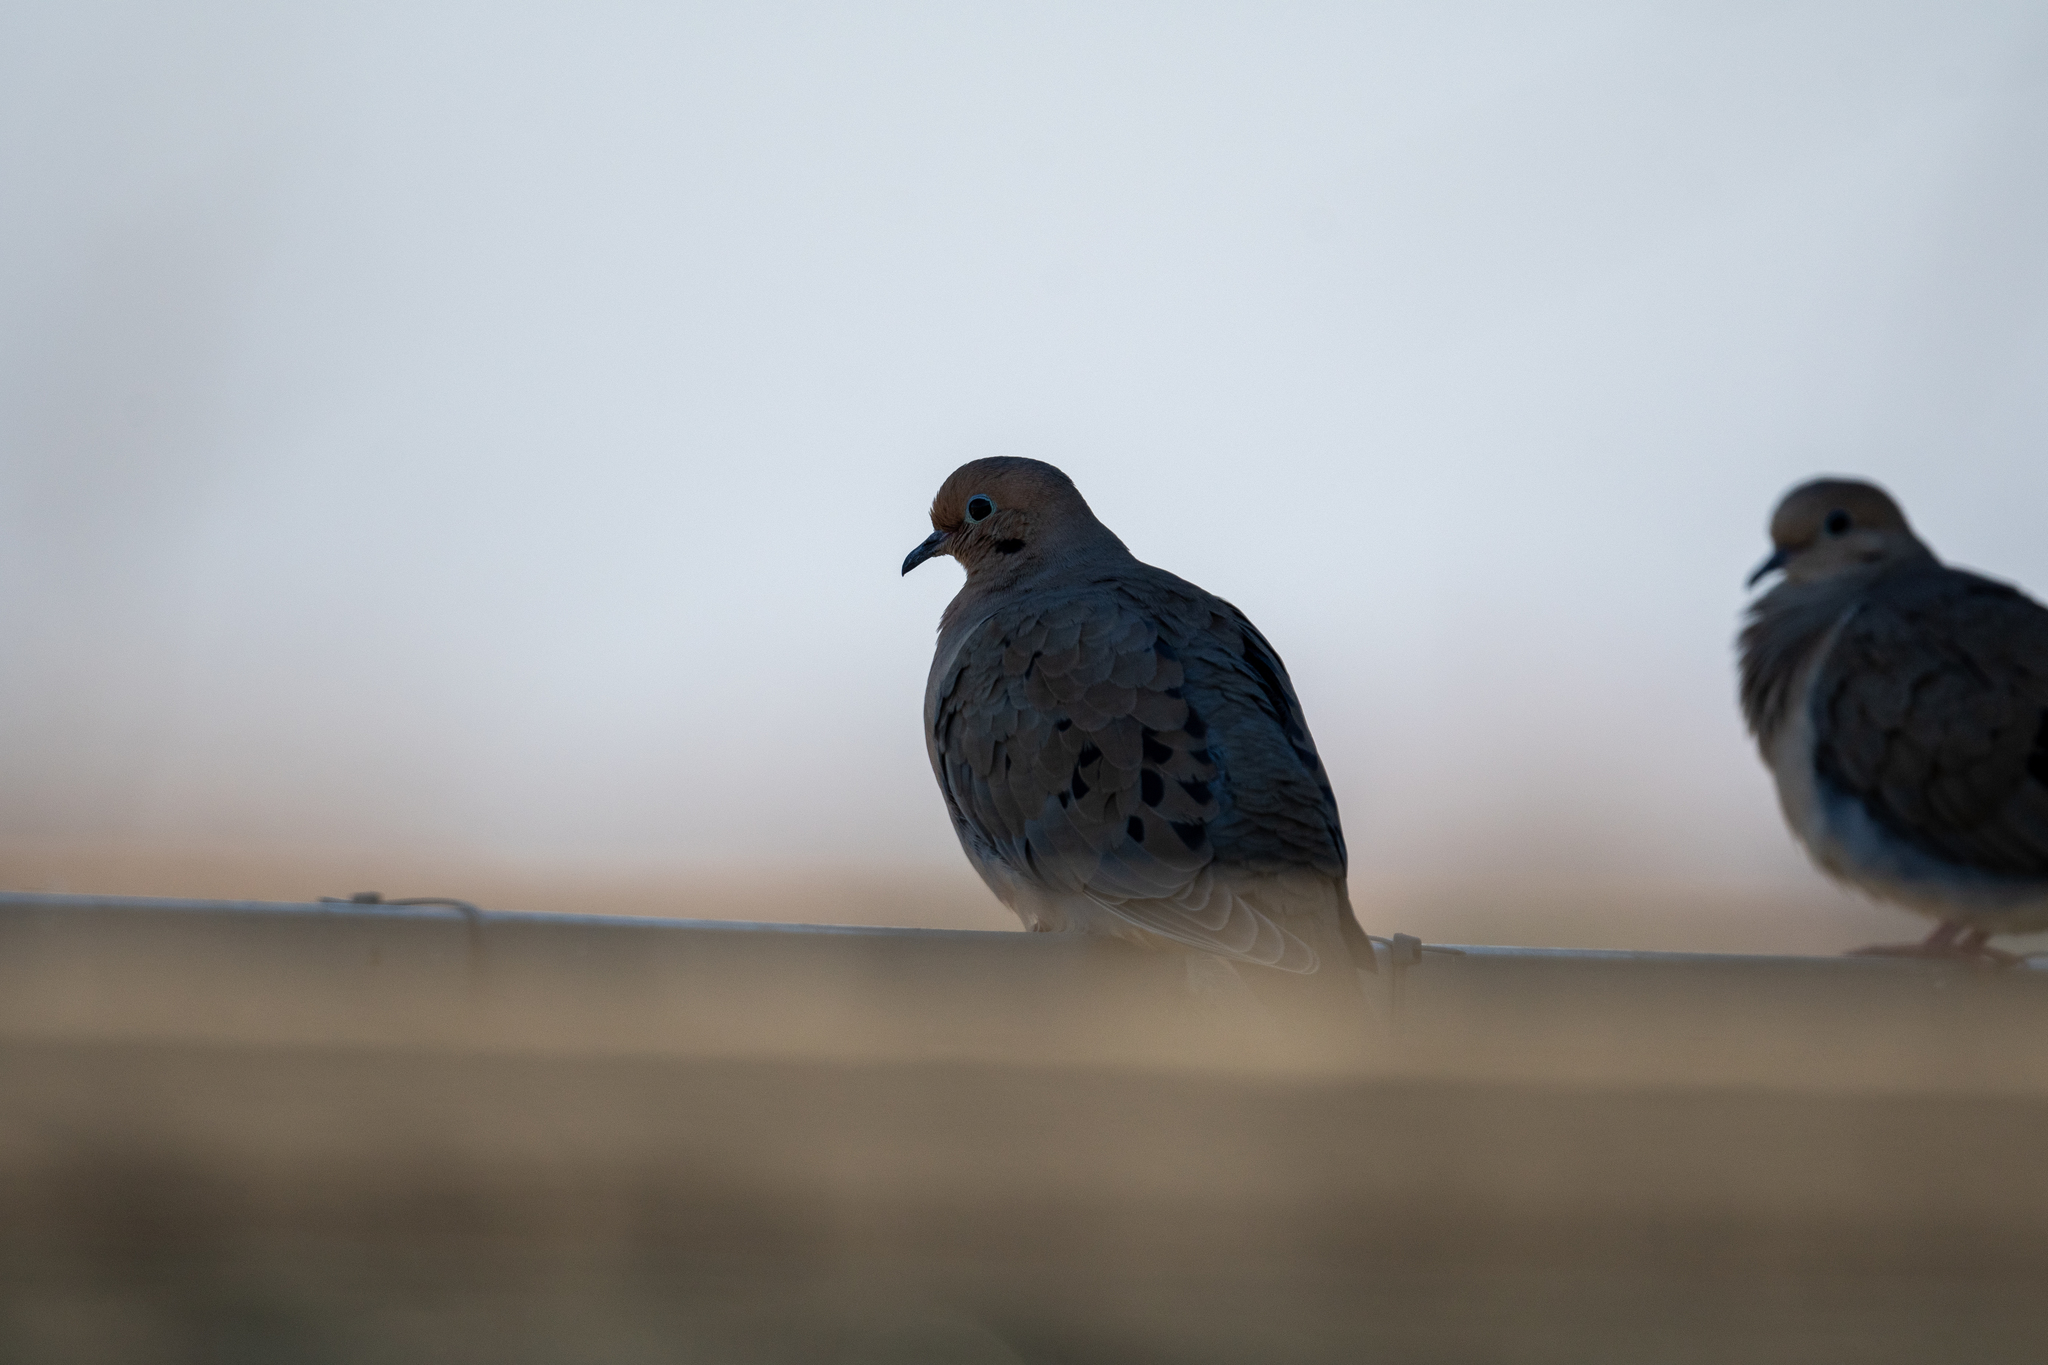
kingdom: Animalia
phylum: Chordata
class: Aves
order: Columbiformes
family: Columbidae
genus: Zenaida
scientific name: Zenaida macroura
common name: Mourning dove
